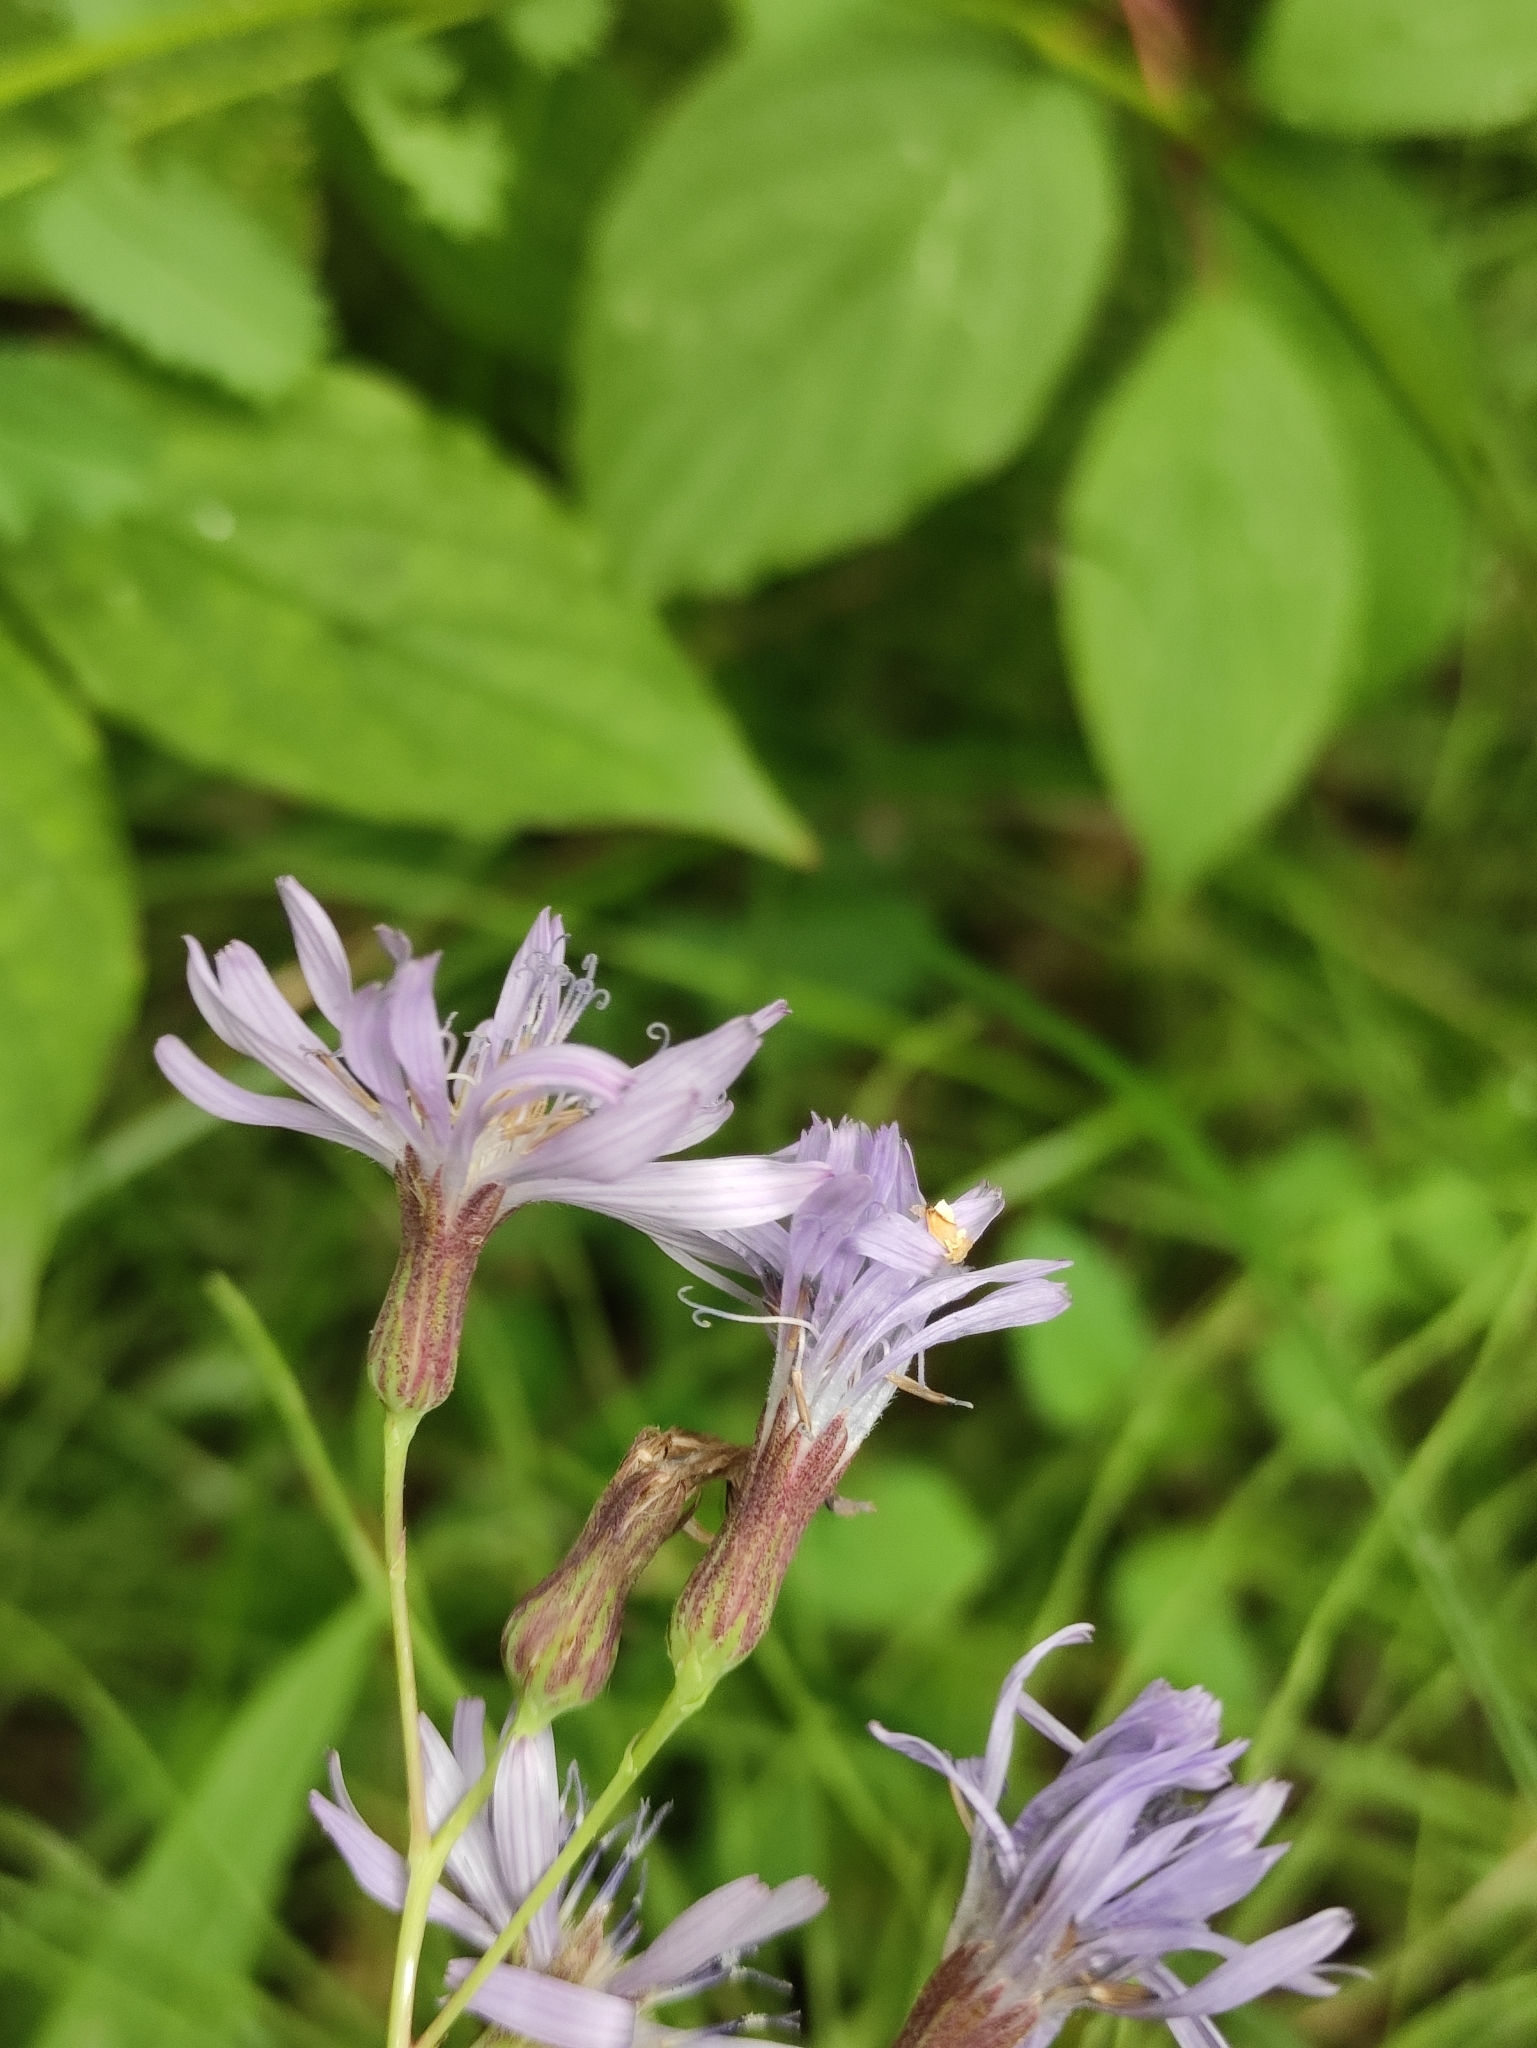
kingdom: Plantae
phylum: Tracheophyta
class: Magnoliopsida
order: Asterales
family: Asteraceae
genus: Lactuca
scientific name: Lactuca sibirica
